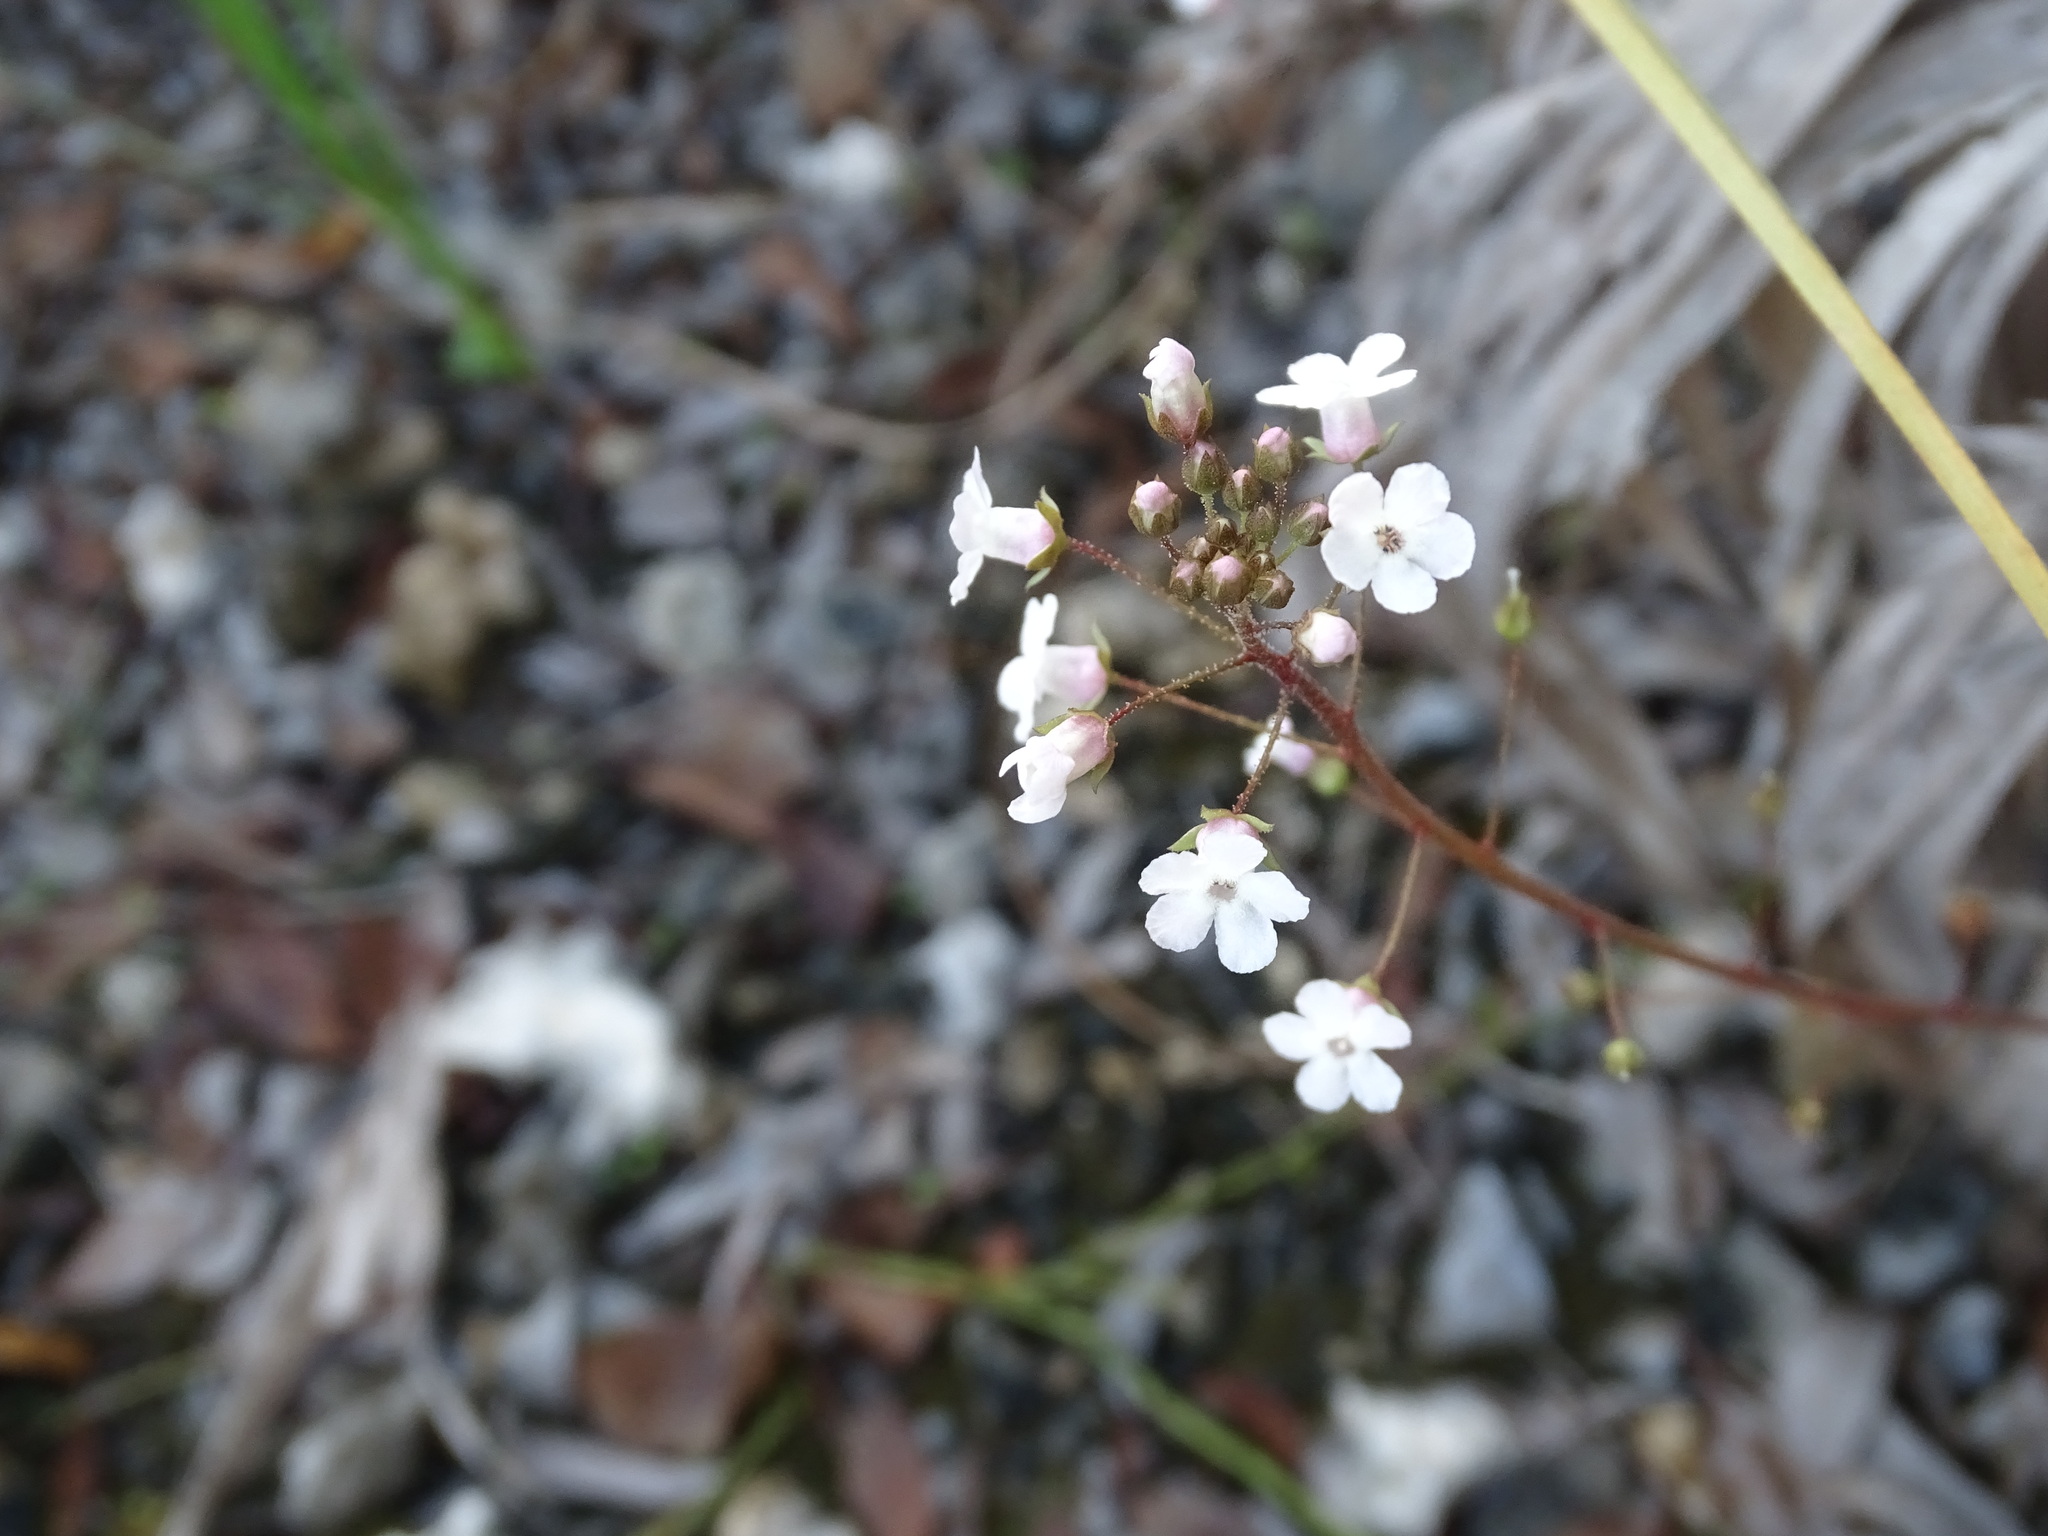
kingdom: Plantae
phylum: Tracheophyta
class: Magnoliopsida
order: Ericales
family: Primulaceae
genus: Samolus
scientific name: Samolus ebracteatus
